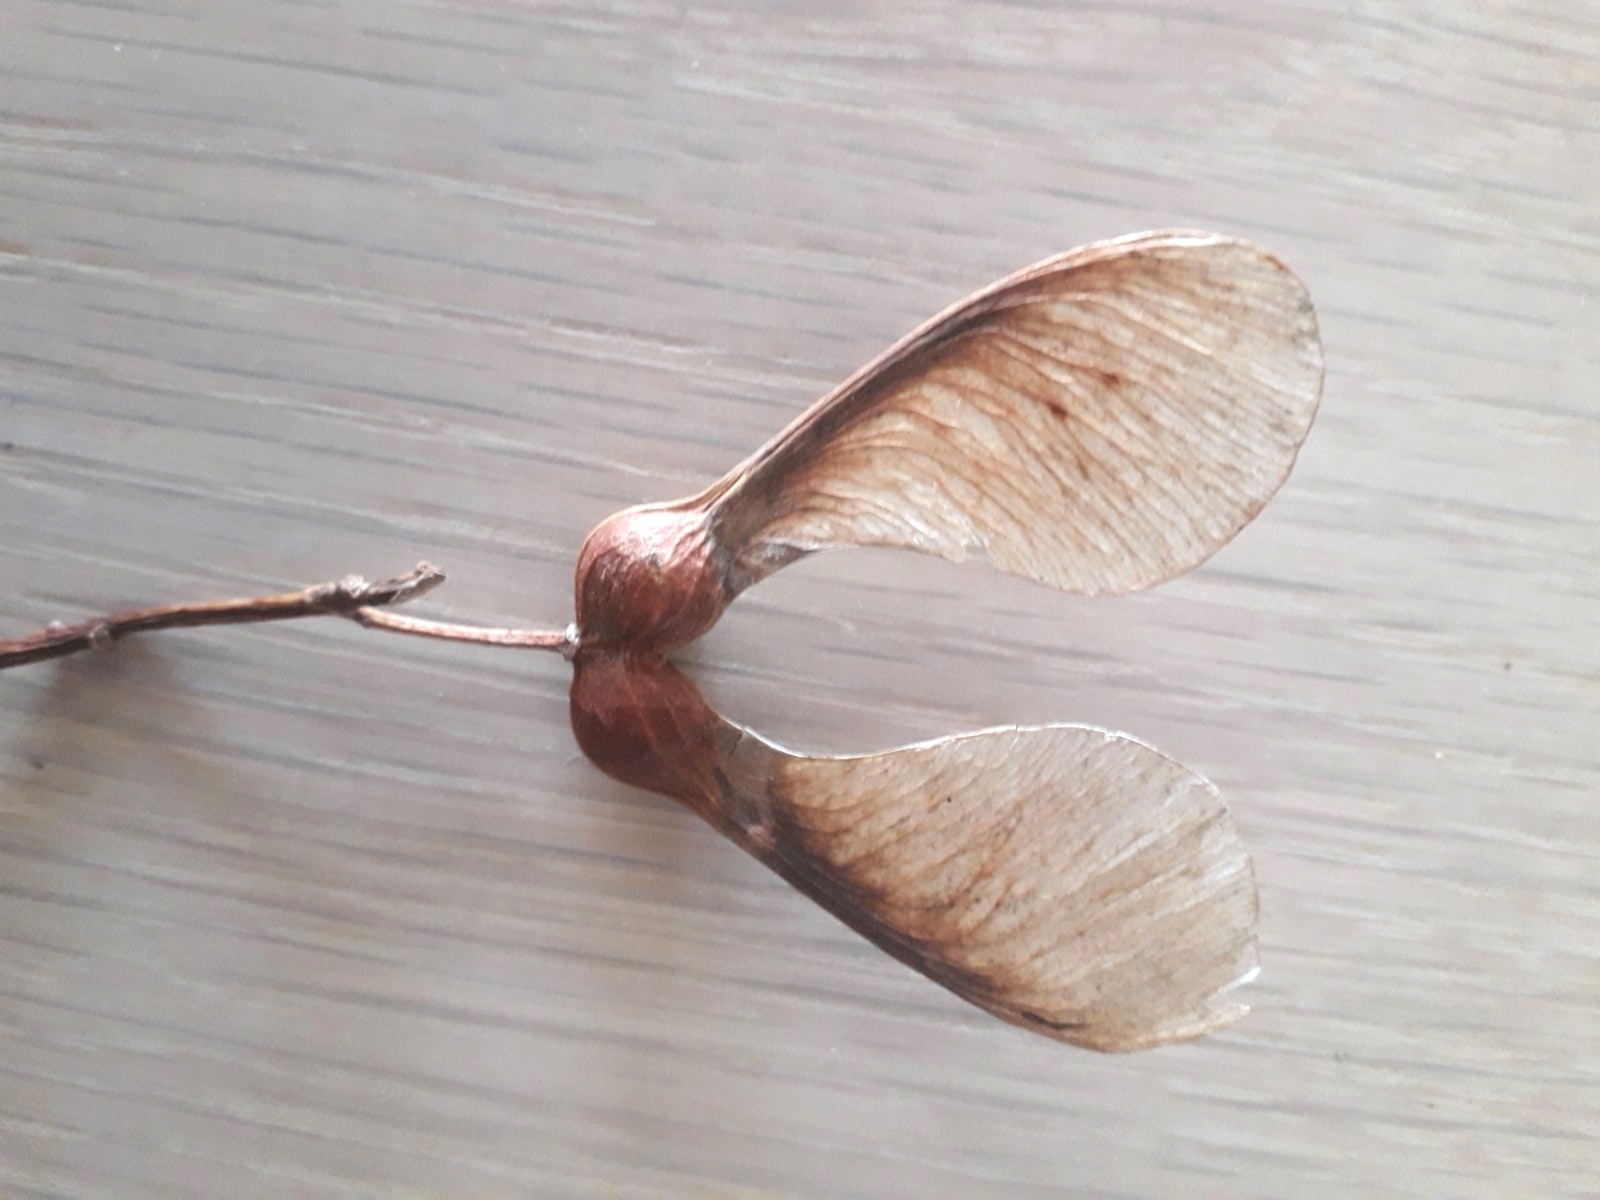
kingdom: Plantae
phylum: Tracheophyta
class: Magnoliopsida
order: Sapindales
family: Sapindaceae
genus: Acer
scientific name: Acer pseudoplatanus
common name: Sycamore
